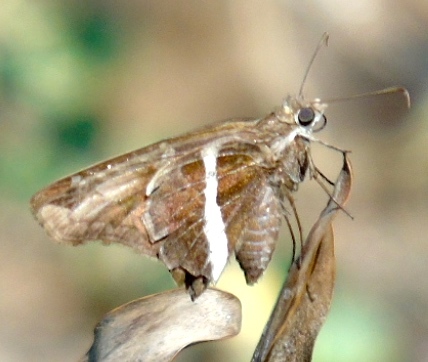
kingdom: Animalia
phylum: Arthropoda
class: Insecta
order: Lepidoptera
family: Hesperiidae
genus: Chioides
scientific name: Chioides catillus
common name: Silverbanded skipper
